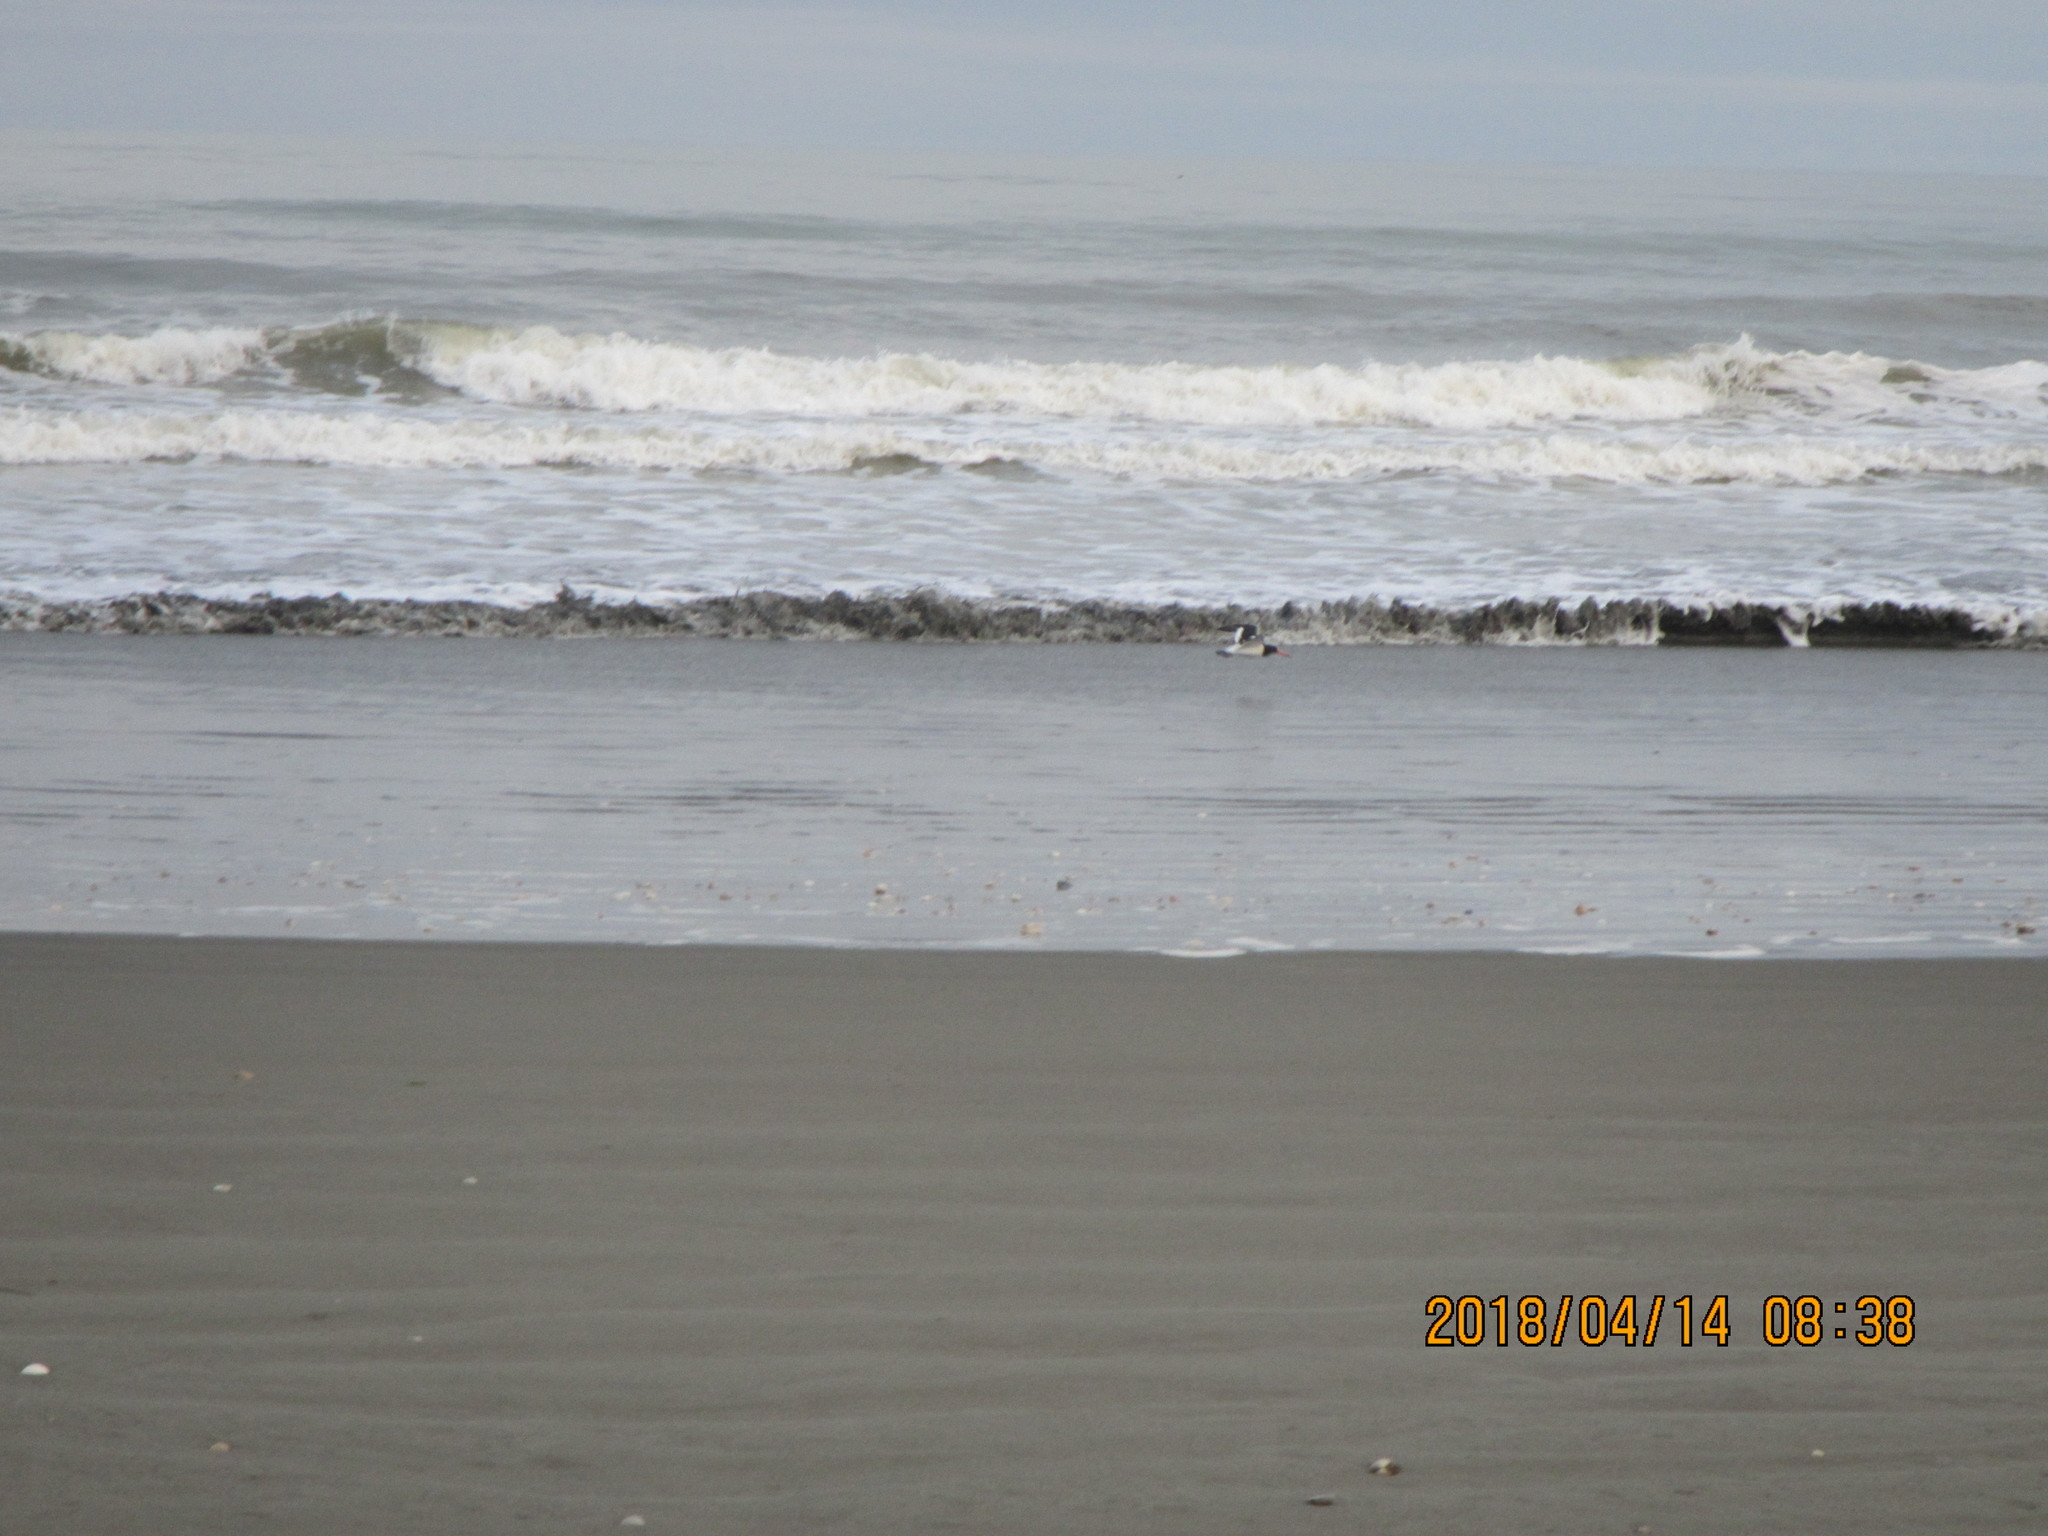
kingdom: Animalia
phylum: Chordata
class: Aves
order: Charadriiformes
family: Haematopodidae
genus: Haematopus
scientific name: Haematopus finschi
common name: South island oystercatcher
